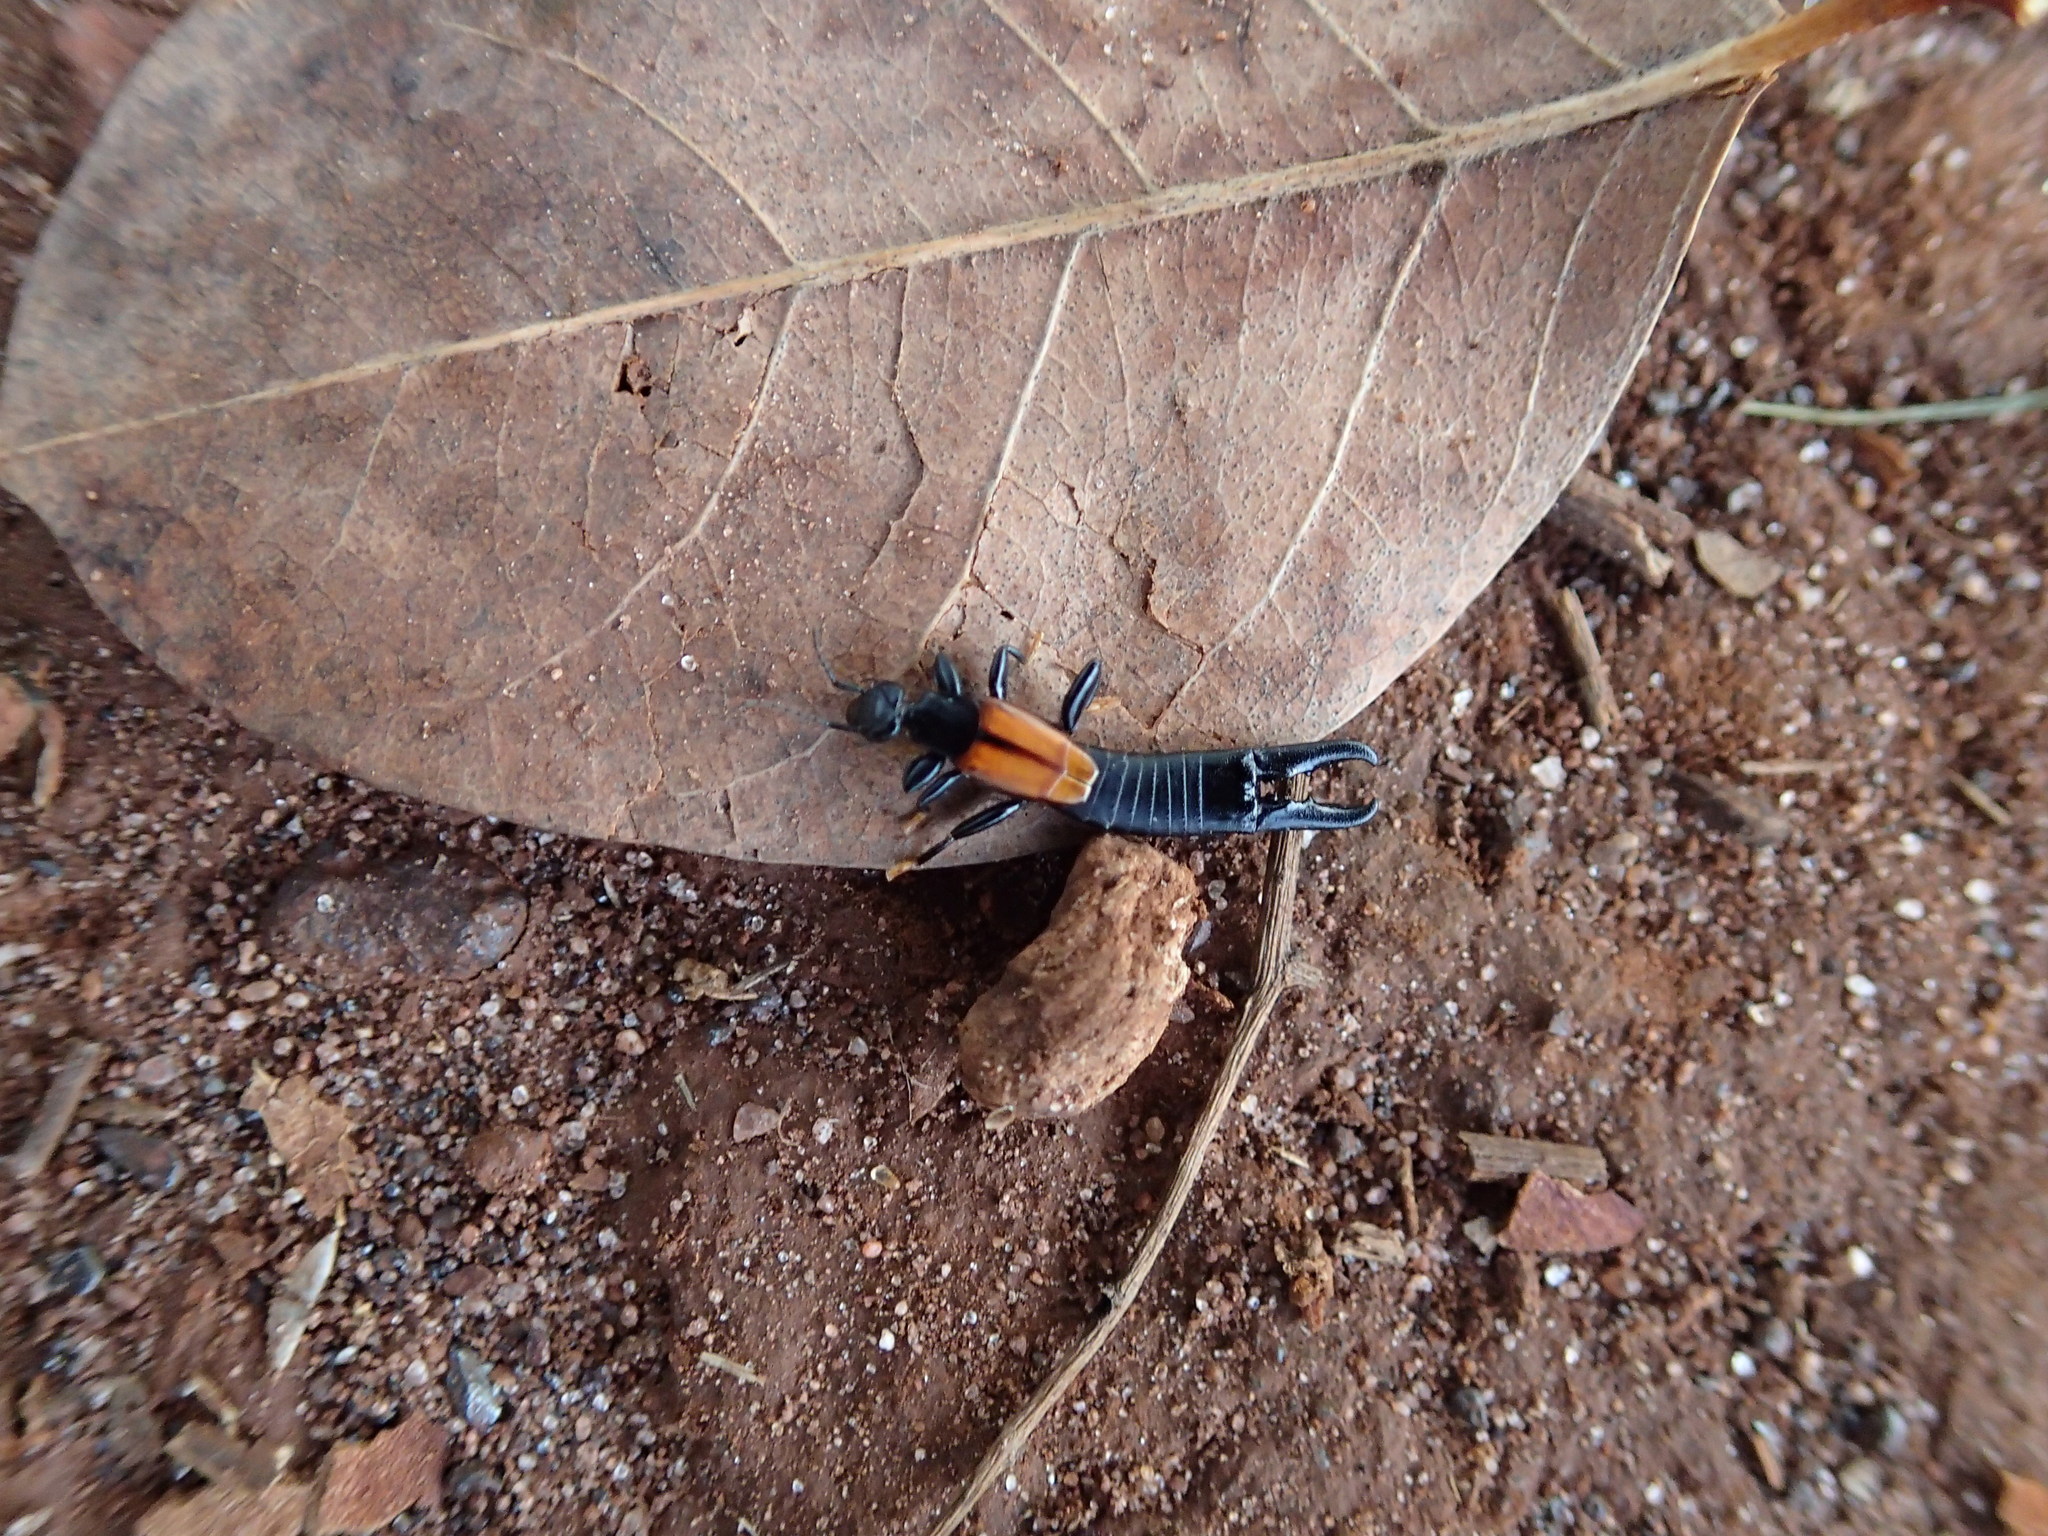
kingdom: Animalia
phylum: Arthropoda
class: Insecta
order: Dermaptera
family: Chelisochidae
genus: Chelisoches
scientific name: Chelisoches australicus
